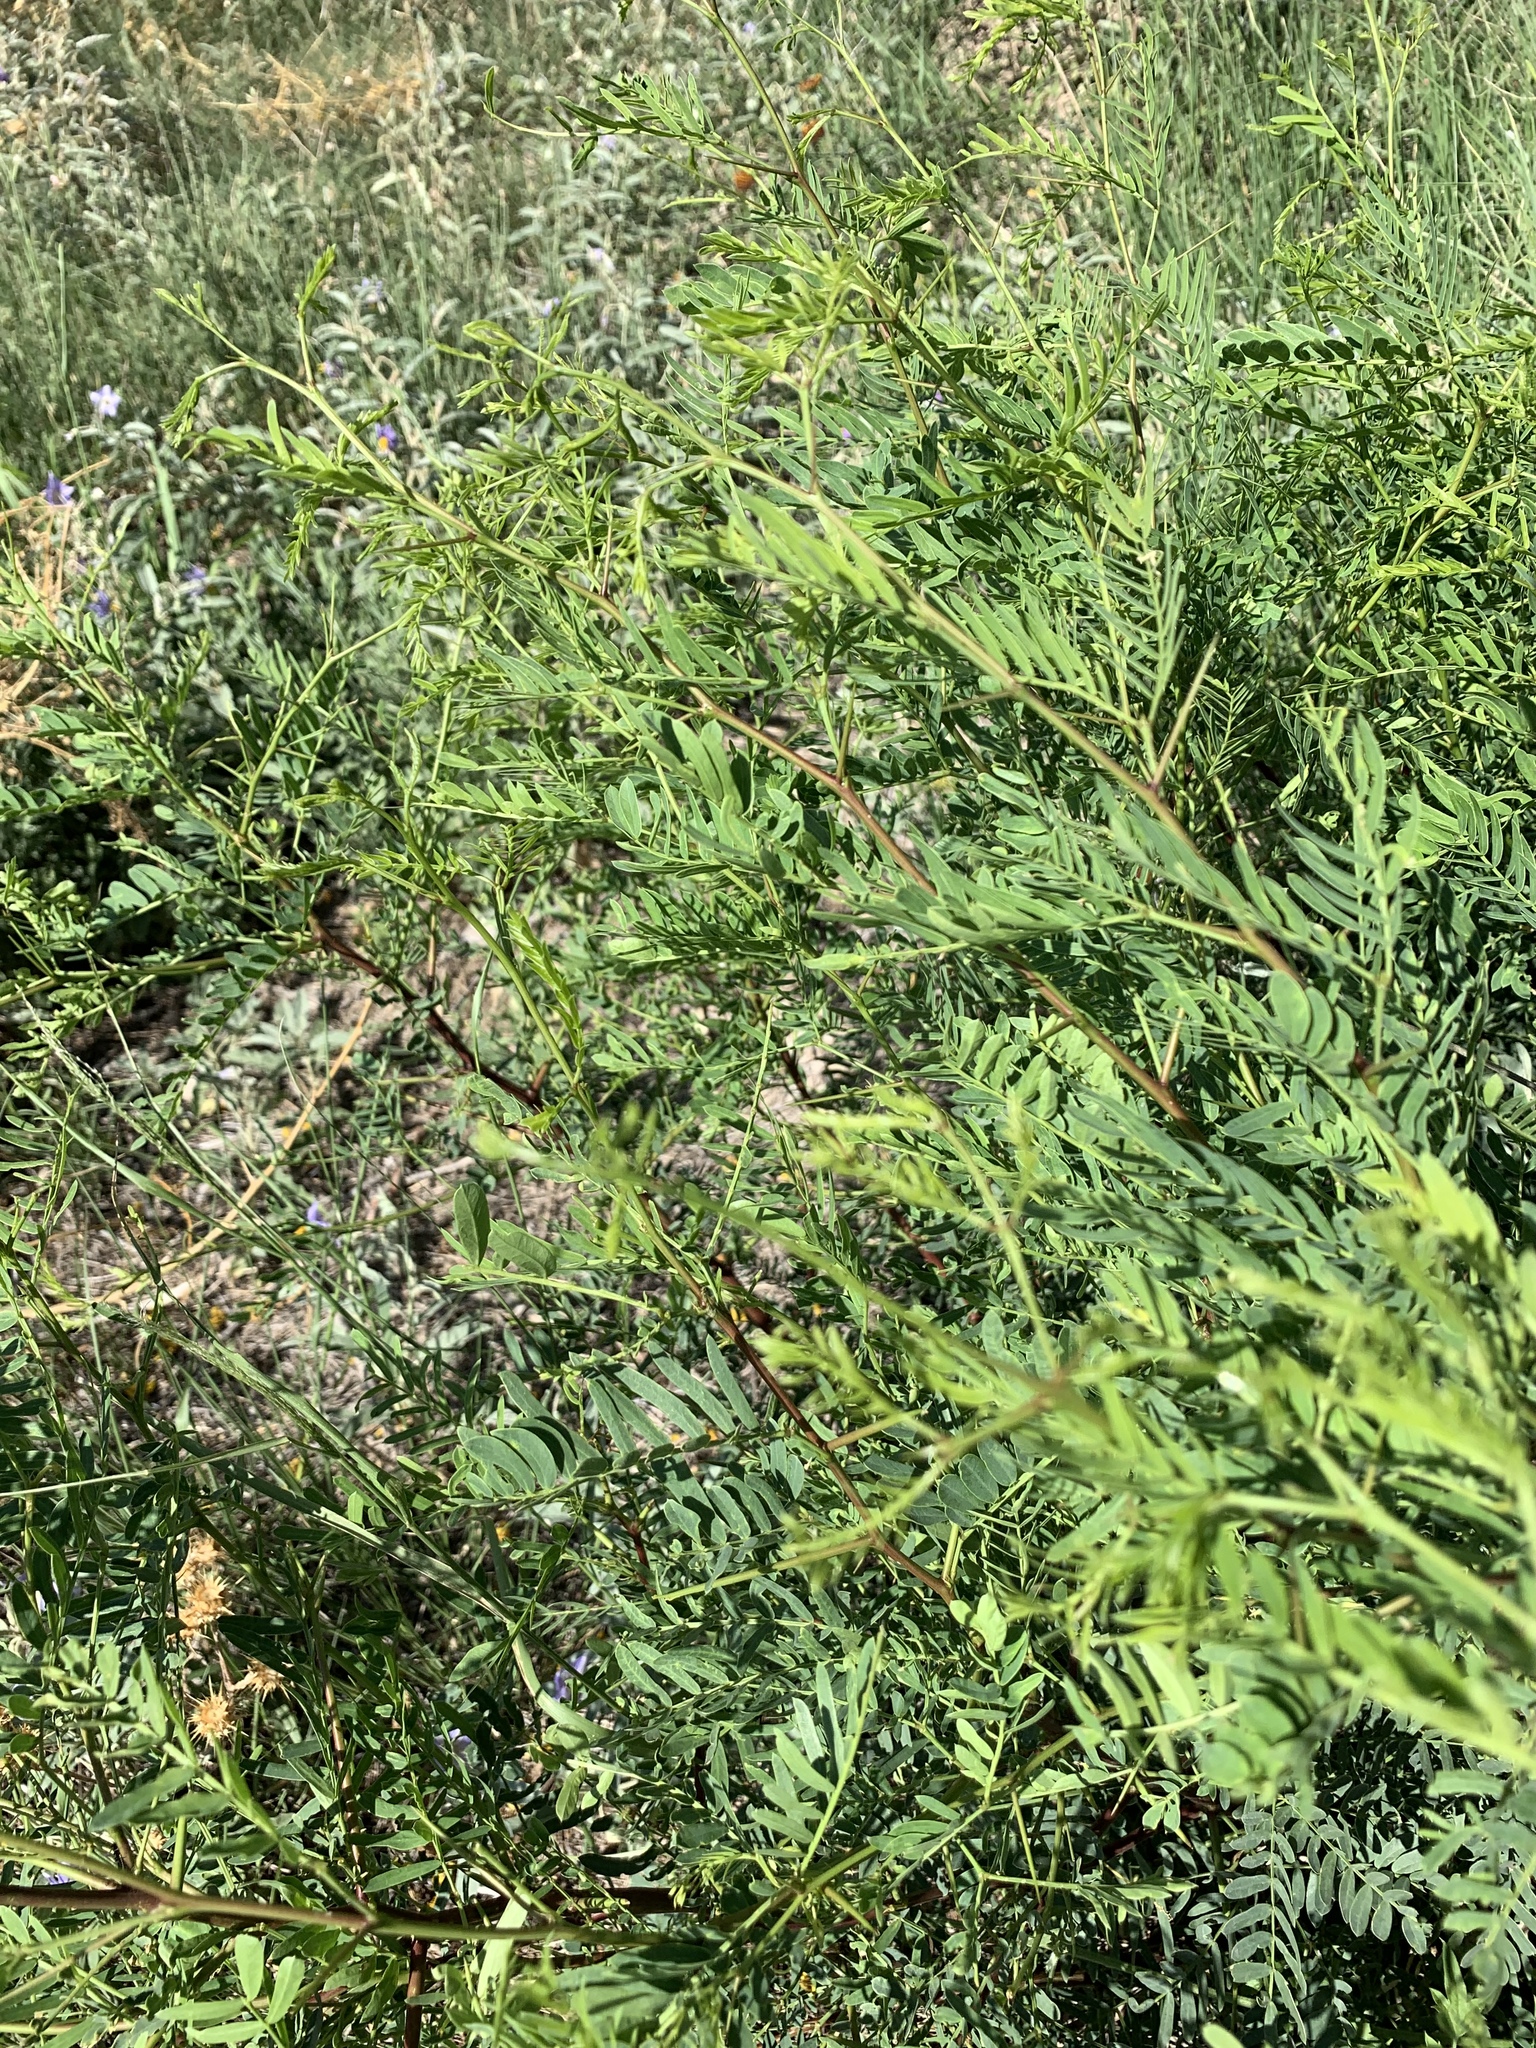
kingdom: Plantae
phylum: Tracheophyta
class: Magnoliopsida
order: Fabales
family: Fabaceae
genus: Prosopis
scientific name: Prosopis glandulosa
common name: Honey mesquite
